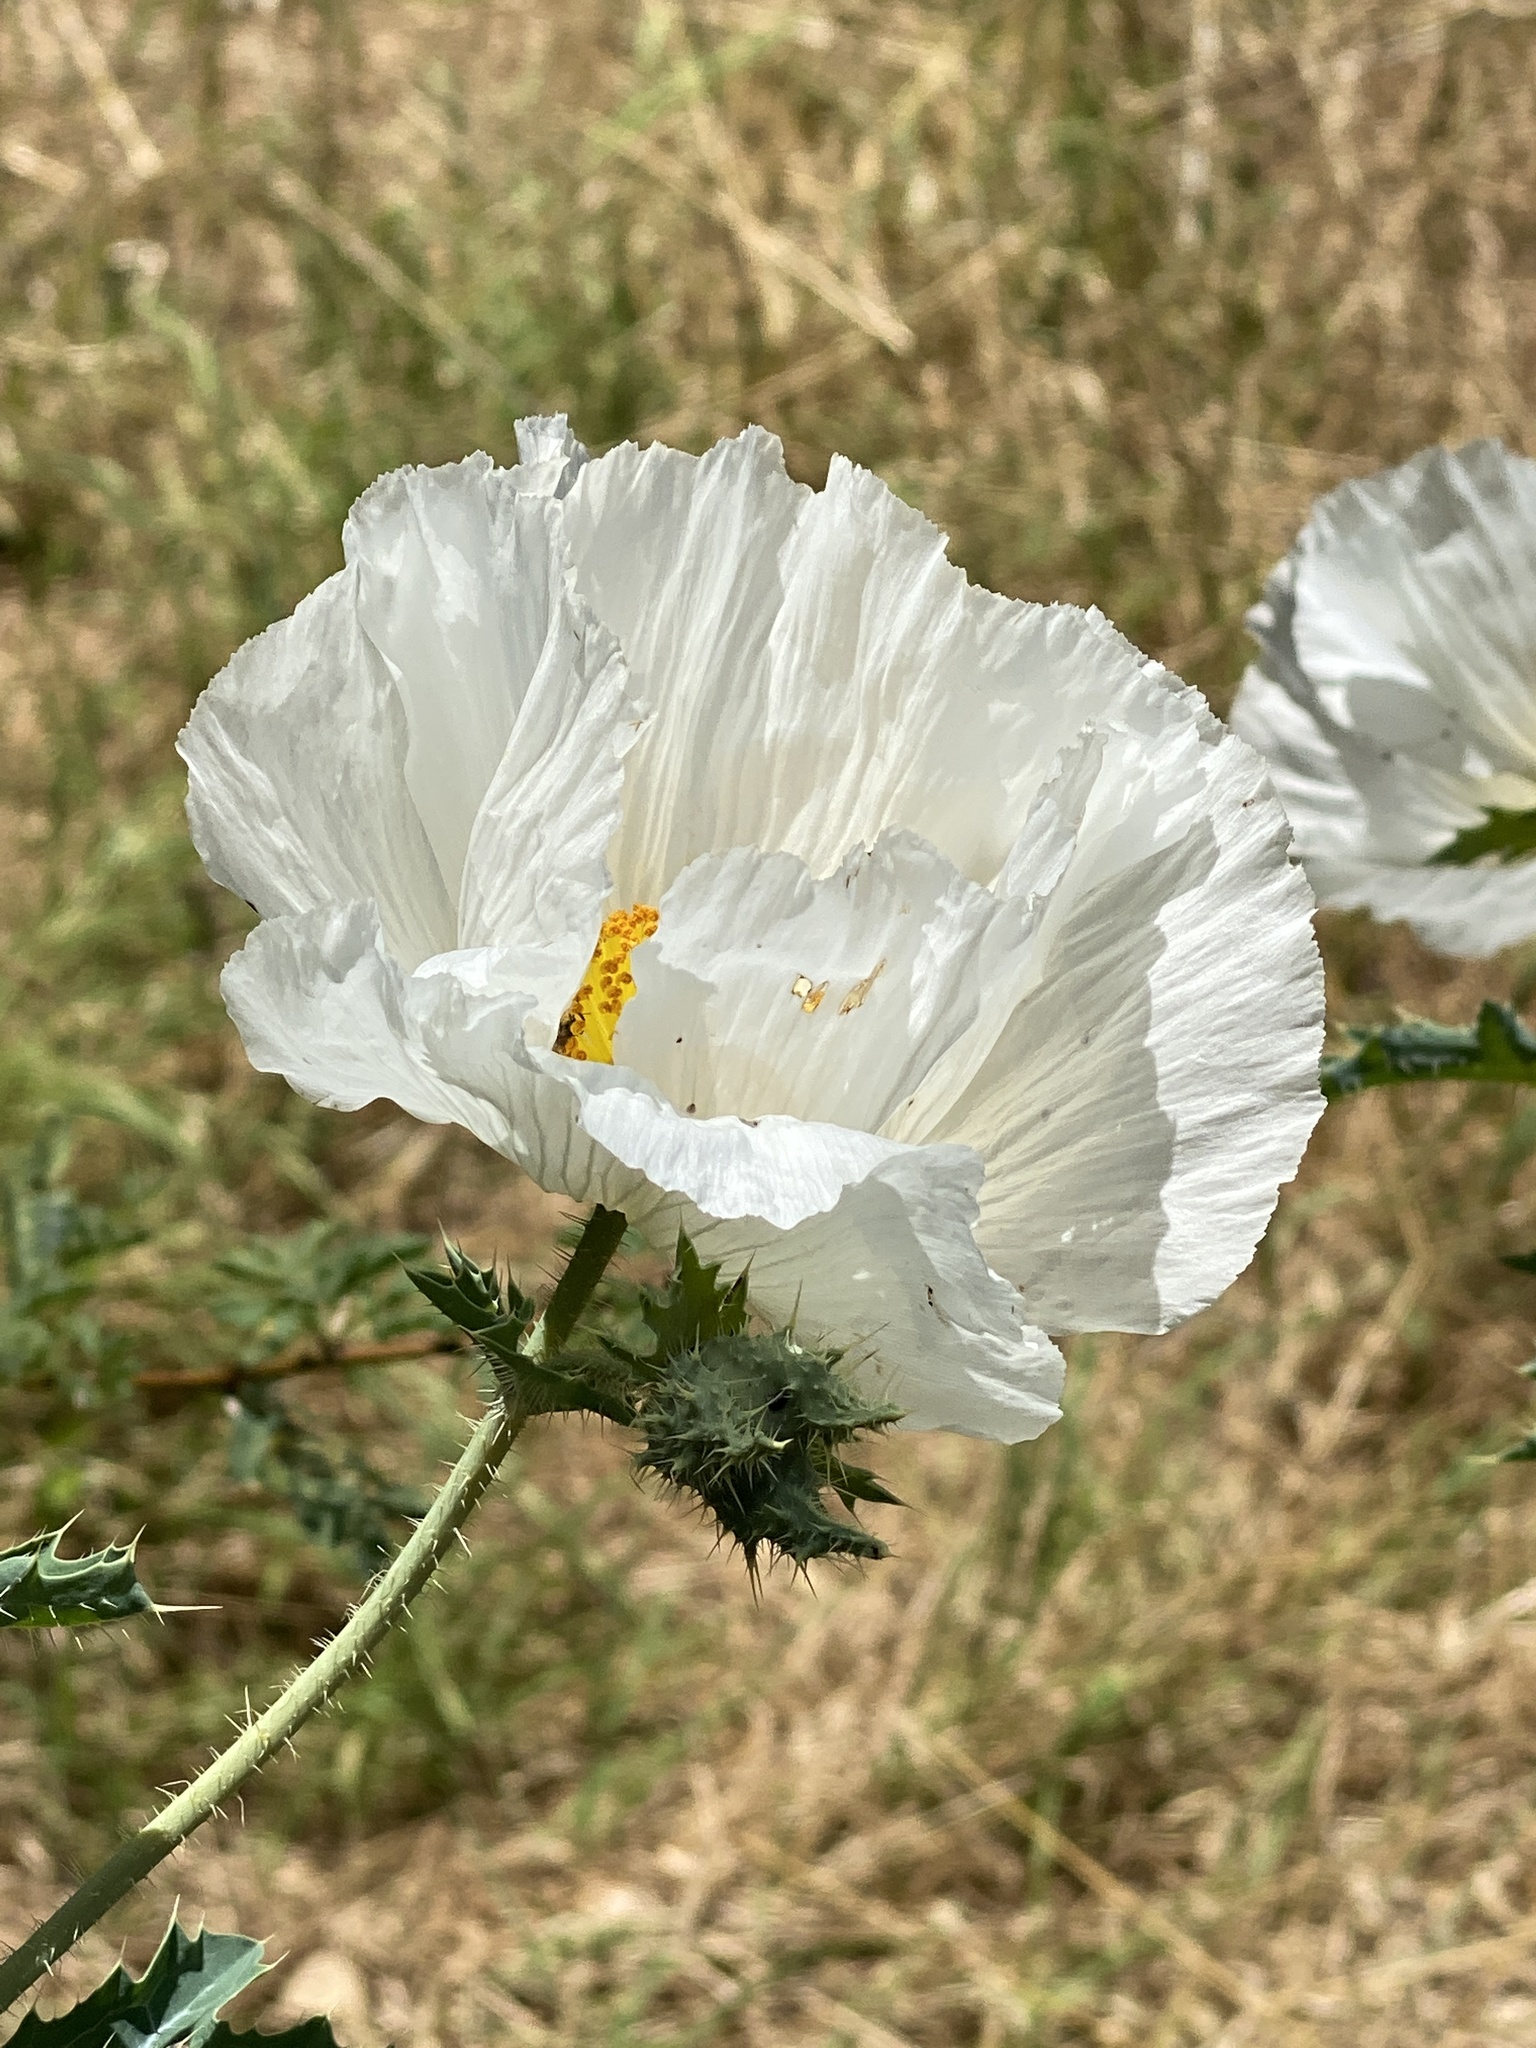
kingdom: Plantae
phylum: Tracheophyta
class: Magnoliopsida
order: Ranunculales
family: Papaveraceae
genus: Argemone
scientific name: Argemone albiflora
